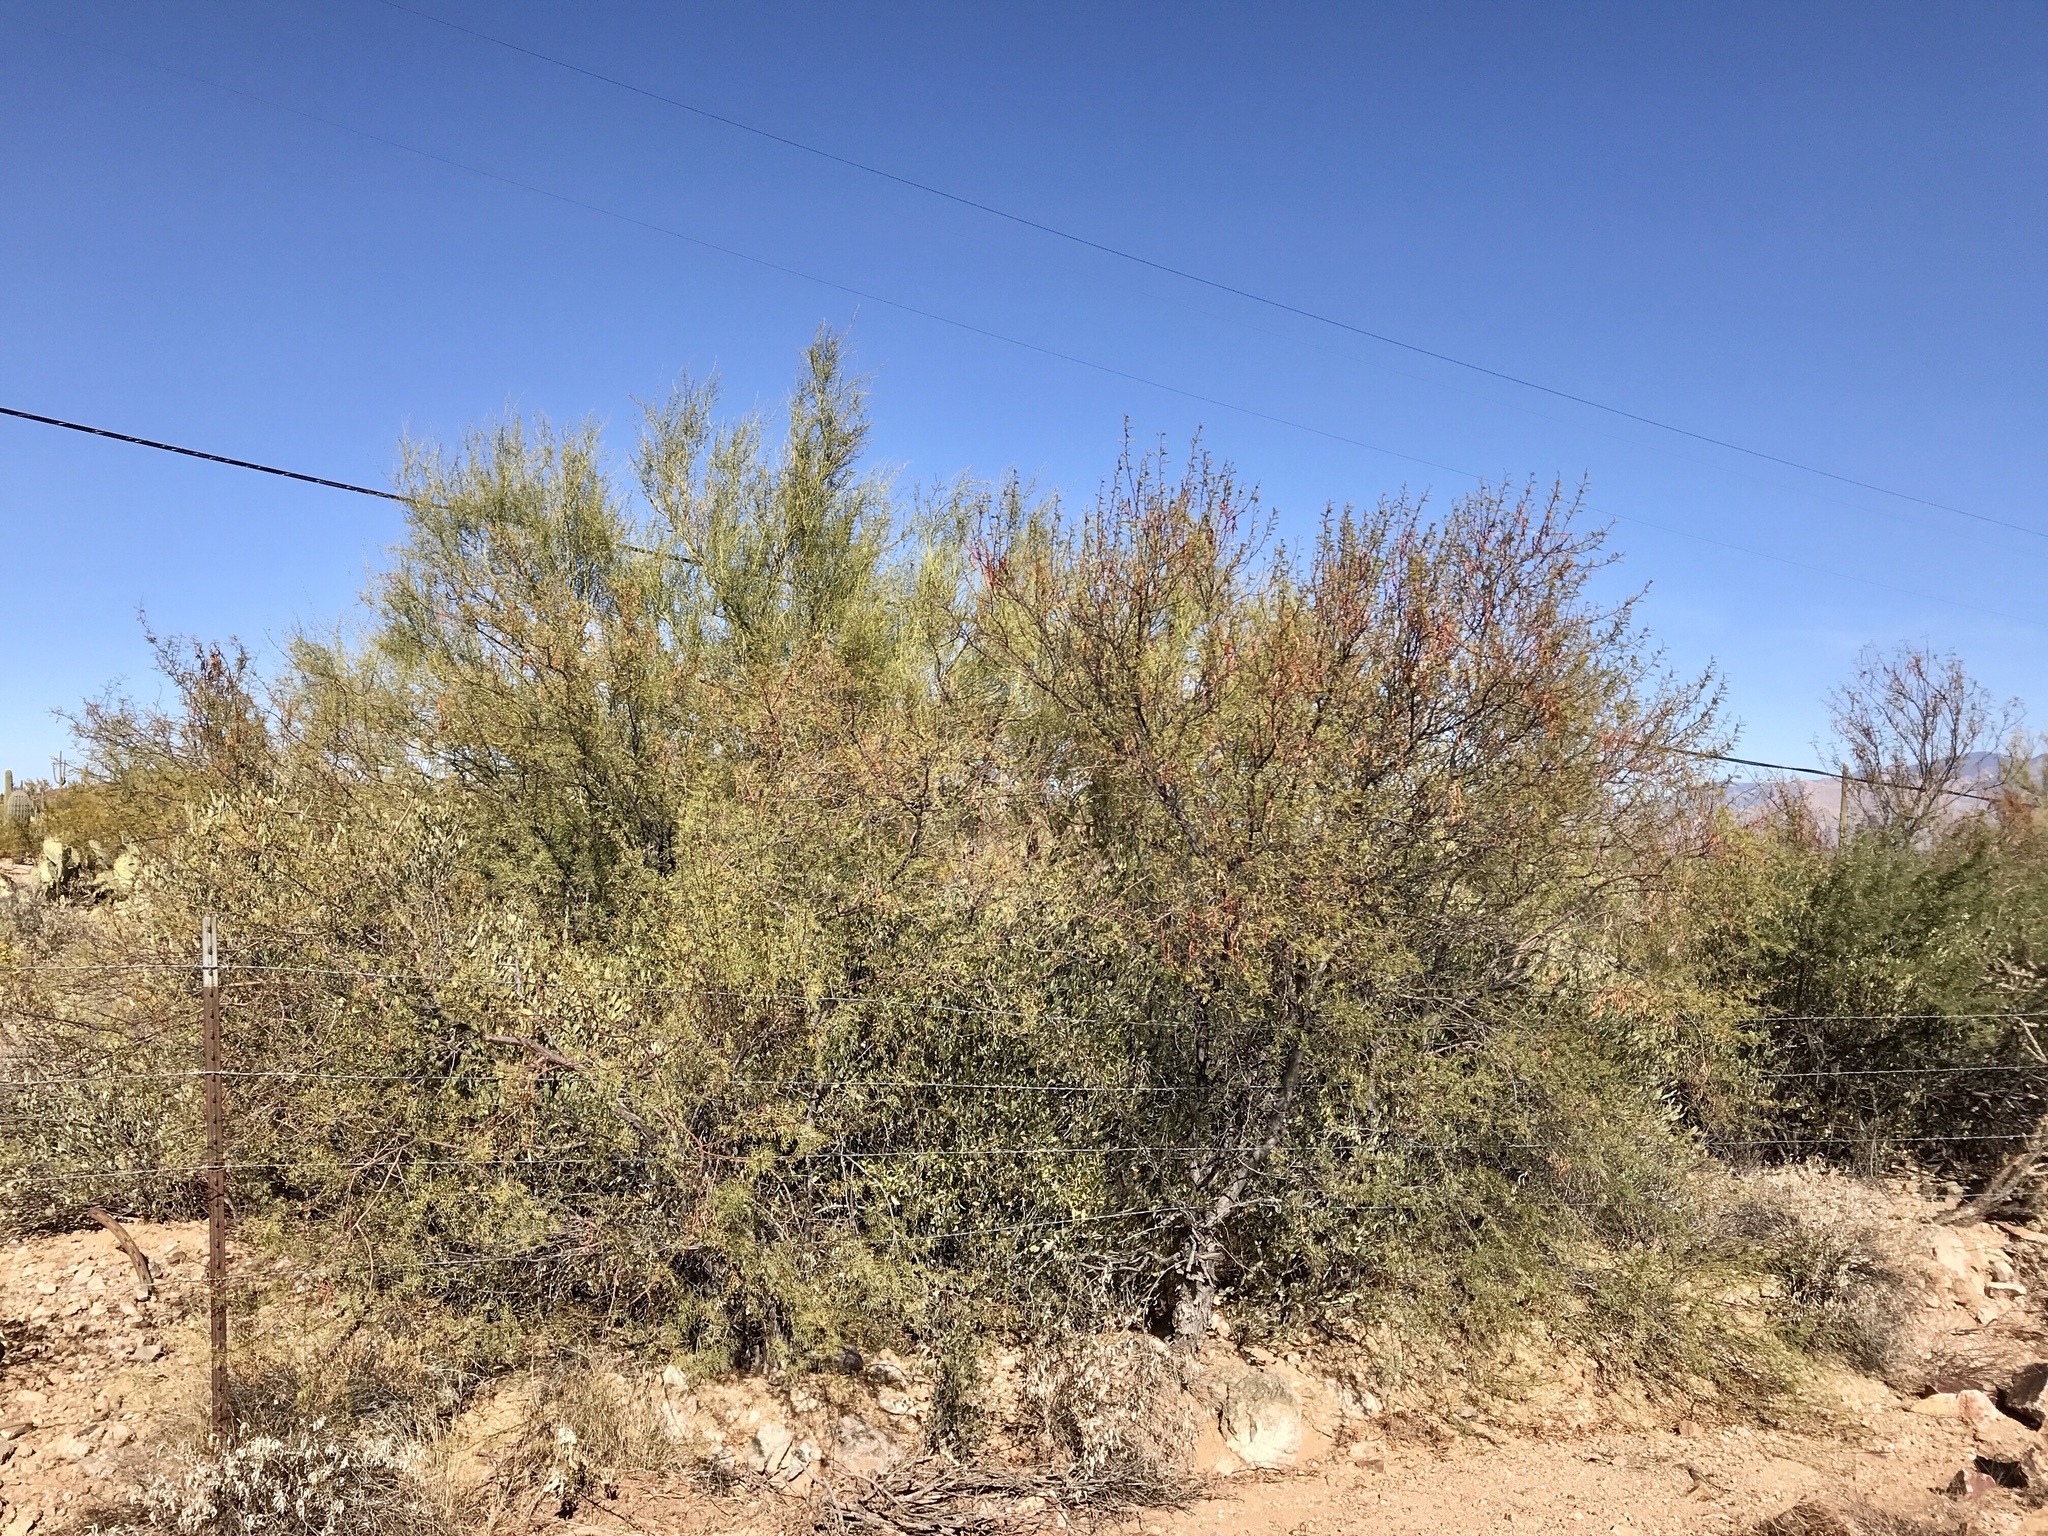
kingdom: Plantae
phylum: Tracheophyta
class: Magnoliopsida
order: Fabales
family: Fabaceae
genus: Vachellia
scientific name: Vachellia constricta
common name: Mescat acacia
